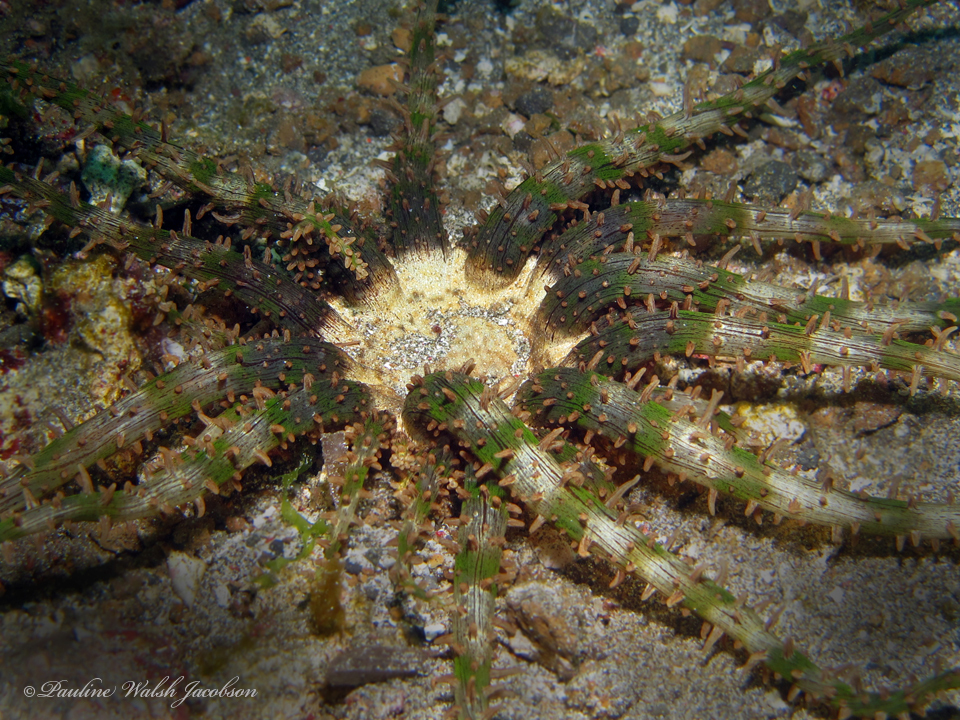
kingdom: Animalia
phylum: Cnidaria
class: Anthozoa
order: Actiniaria
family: Actinodendridae
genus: Actinostephanus
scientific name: Actinostephanus haeckeli
